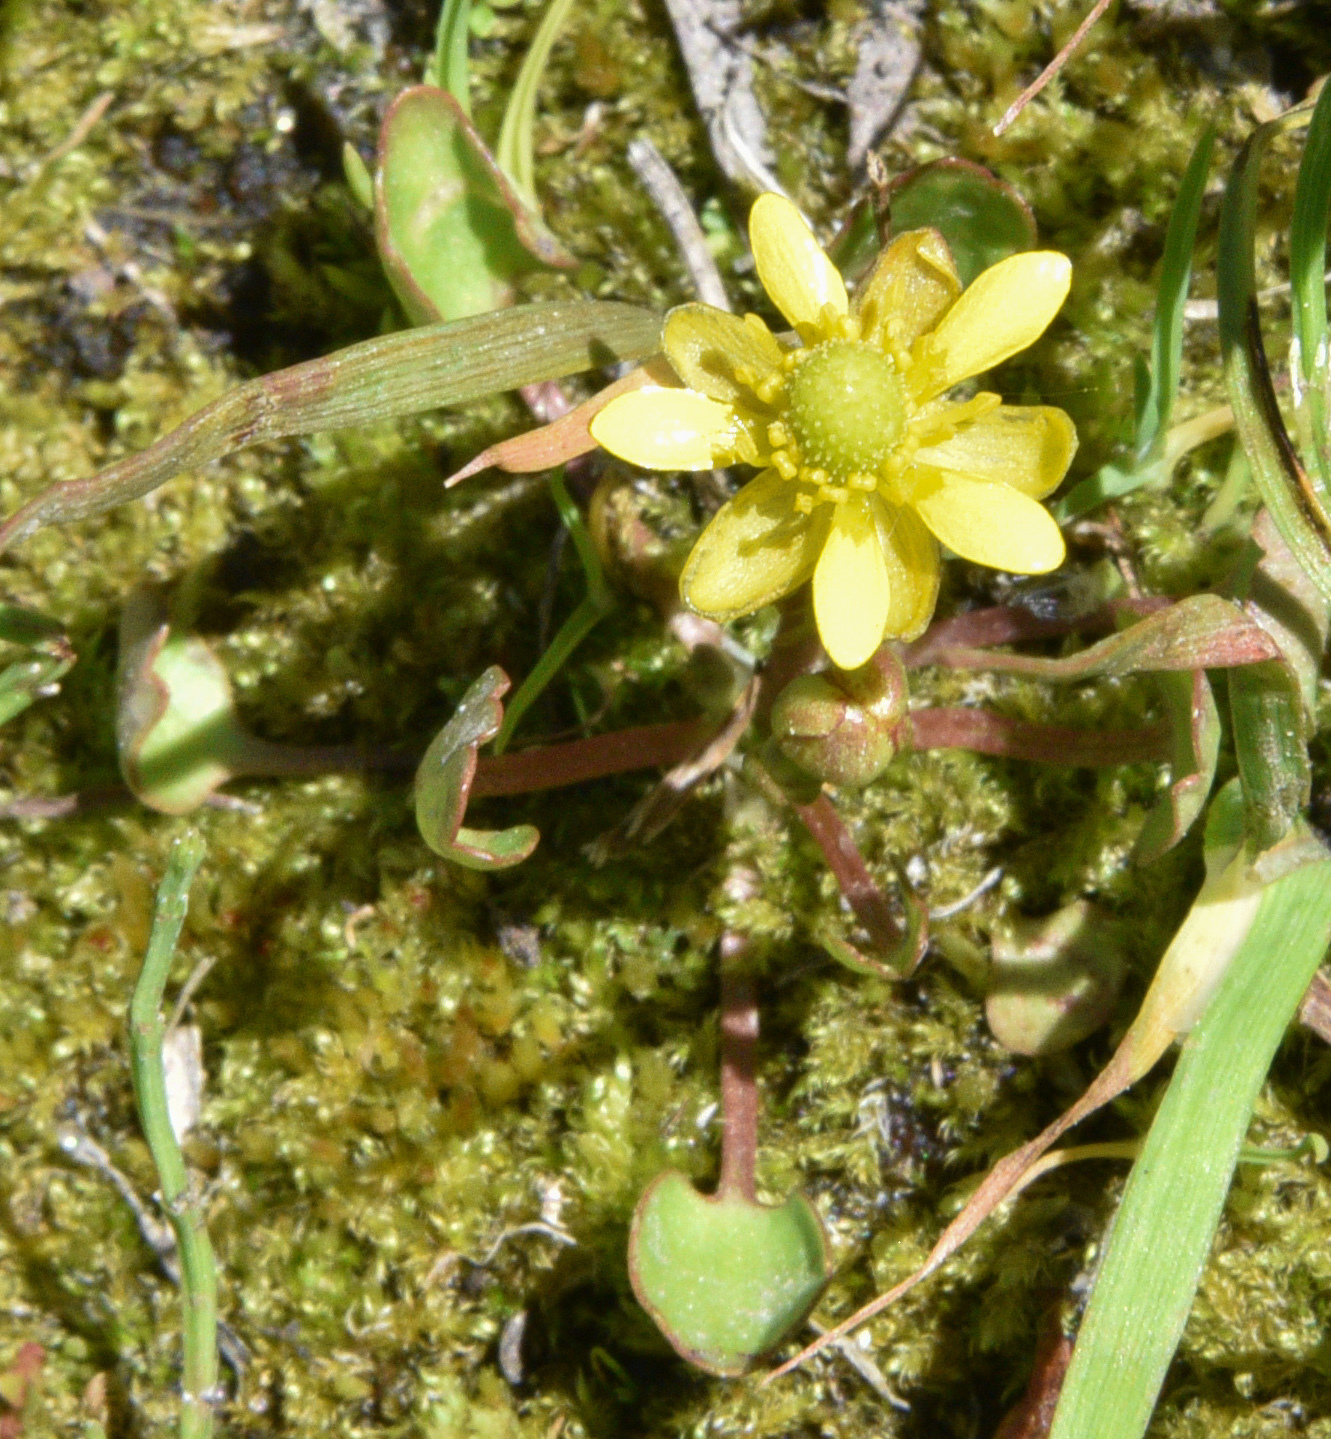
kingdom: Plantae
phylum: Tracheophyta
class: Magnoliopsida
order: Ranunculales
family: Ranunculaceae
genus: Halerpestes
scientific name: Halerpestes cymbalaria
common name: Seaside crowfoot
